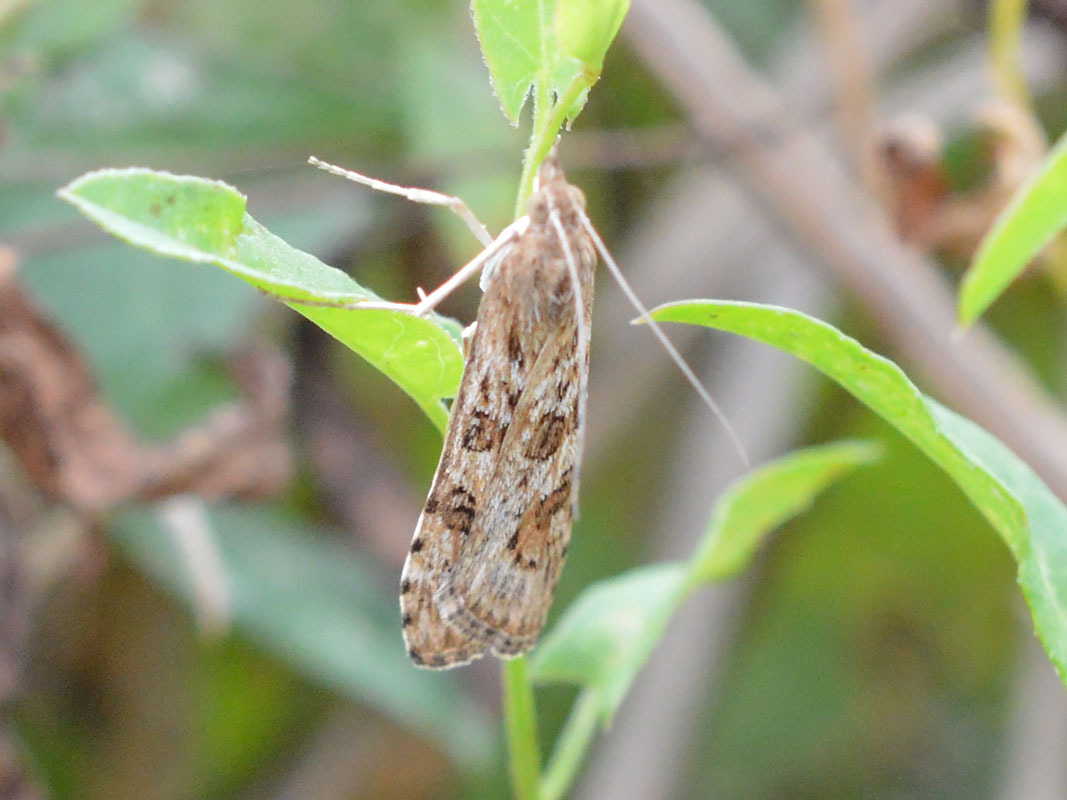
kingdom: Animalia
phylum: Arthropoda
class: Insecta
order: Lepidoptera
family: Crambidae
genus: Nomophila
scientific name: Nomophila noctuella
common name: Rush veneer
